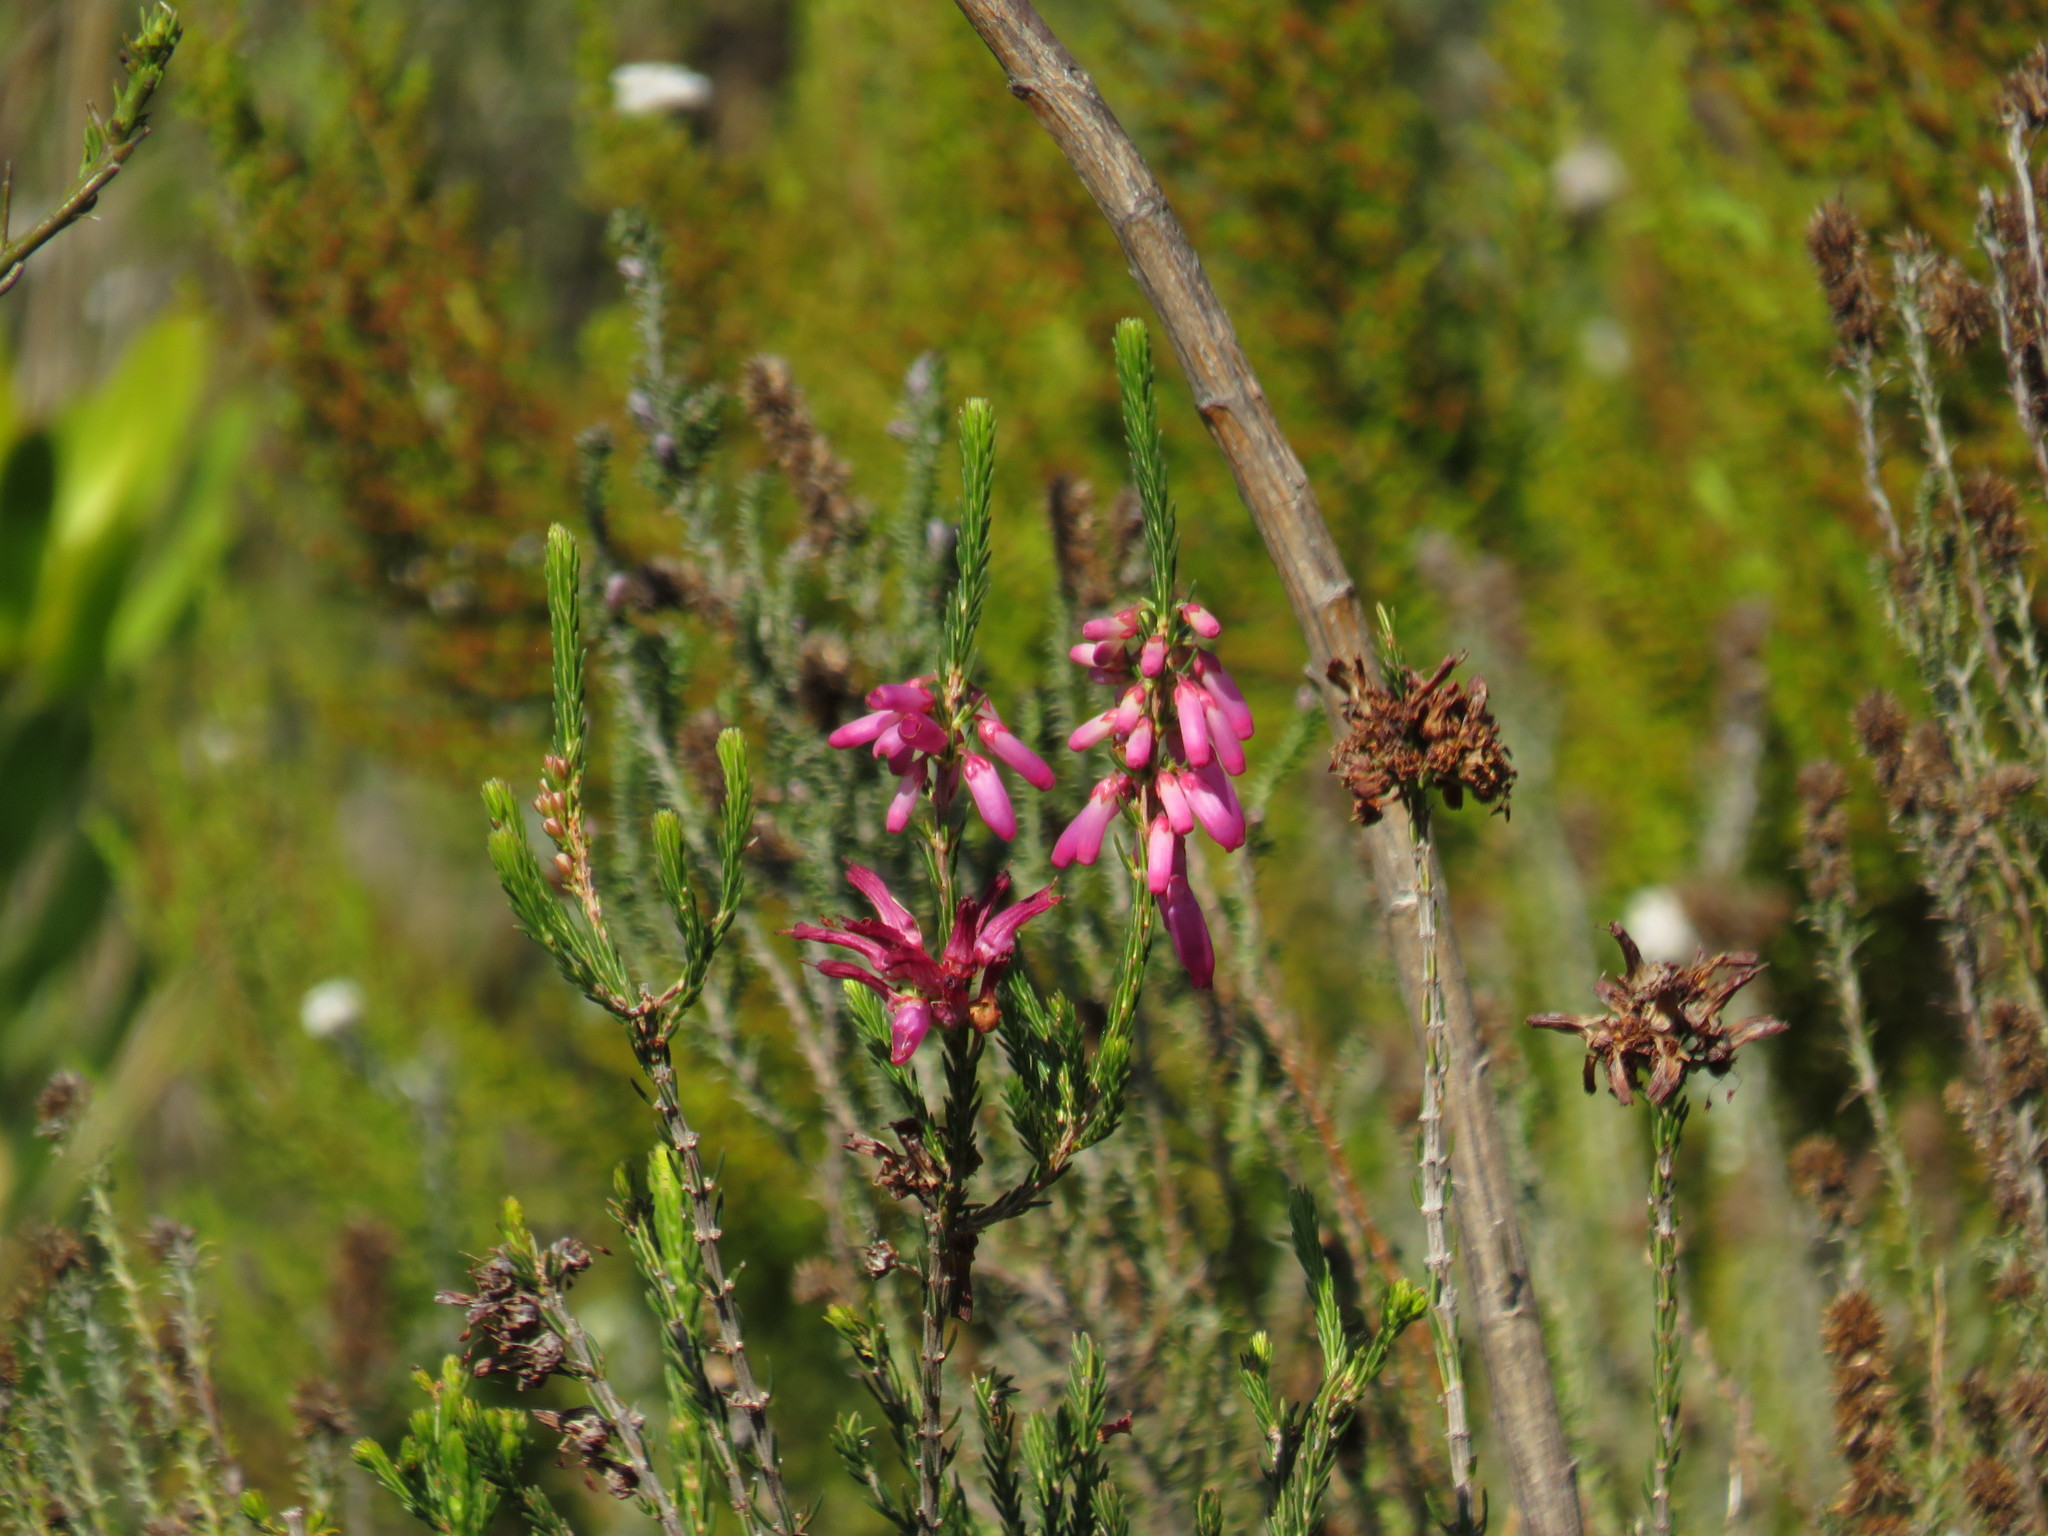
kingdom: Plantae
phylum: Tracheophyta
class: Magnoliopsida
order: Ericales
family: Ericaceae
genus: Erica
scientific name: Erica mammosa
